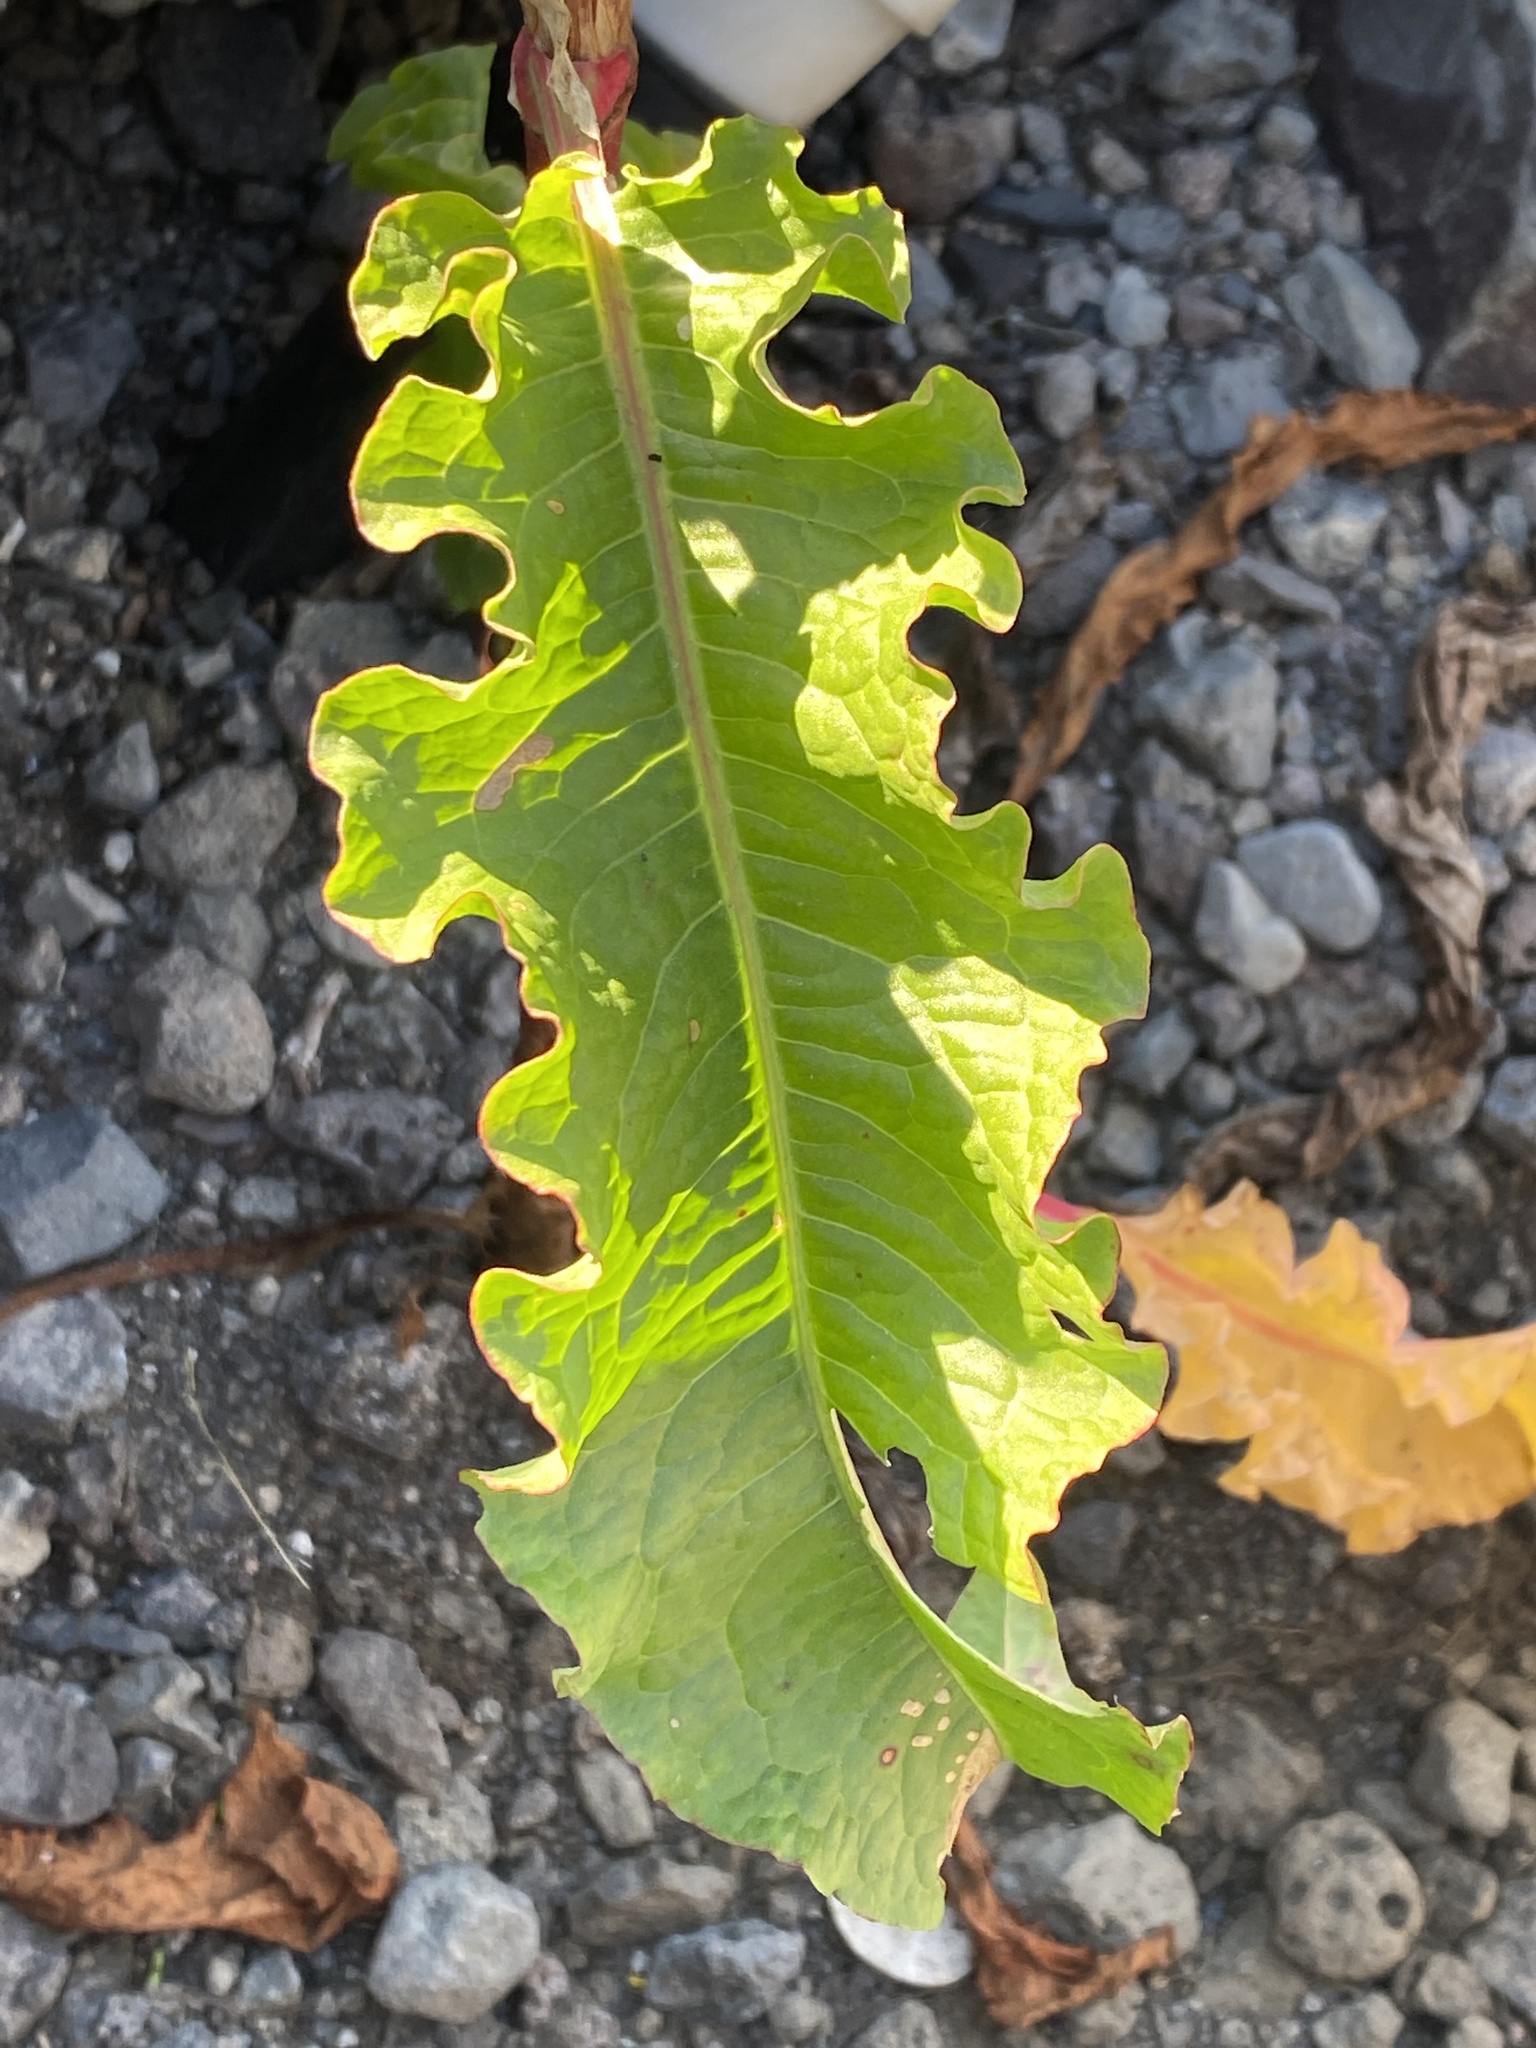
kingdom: Plantae
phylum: Tracheophyta
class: Magnoliopsida
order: Caryophyllales
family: Polygonaceae
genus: Rumex
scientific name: Rumex crispus
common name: Curled dock
